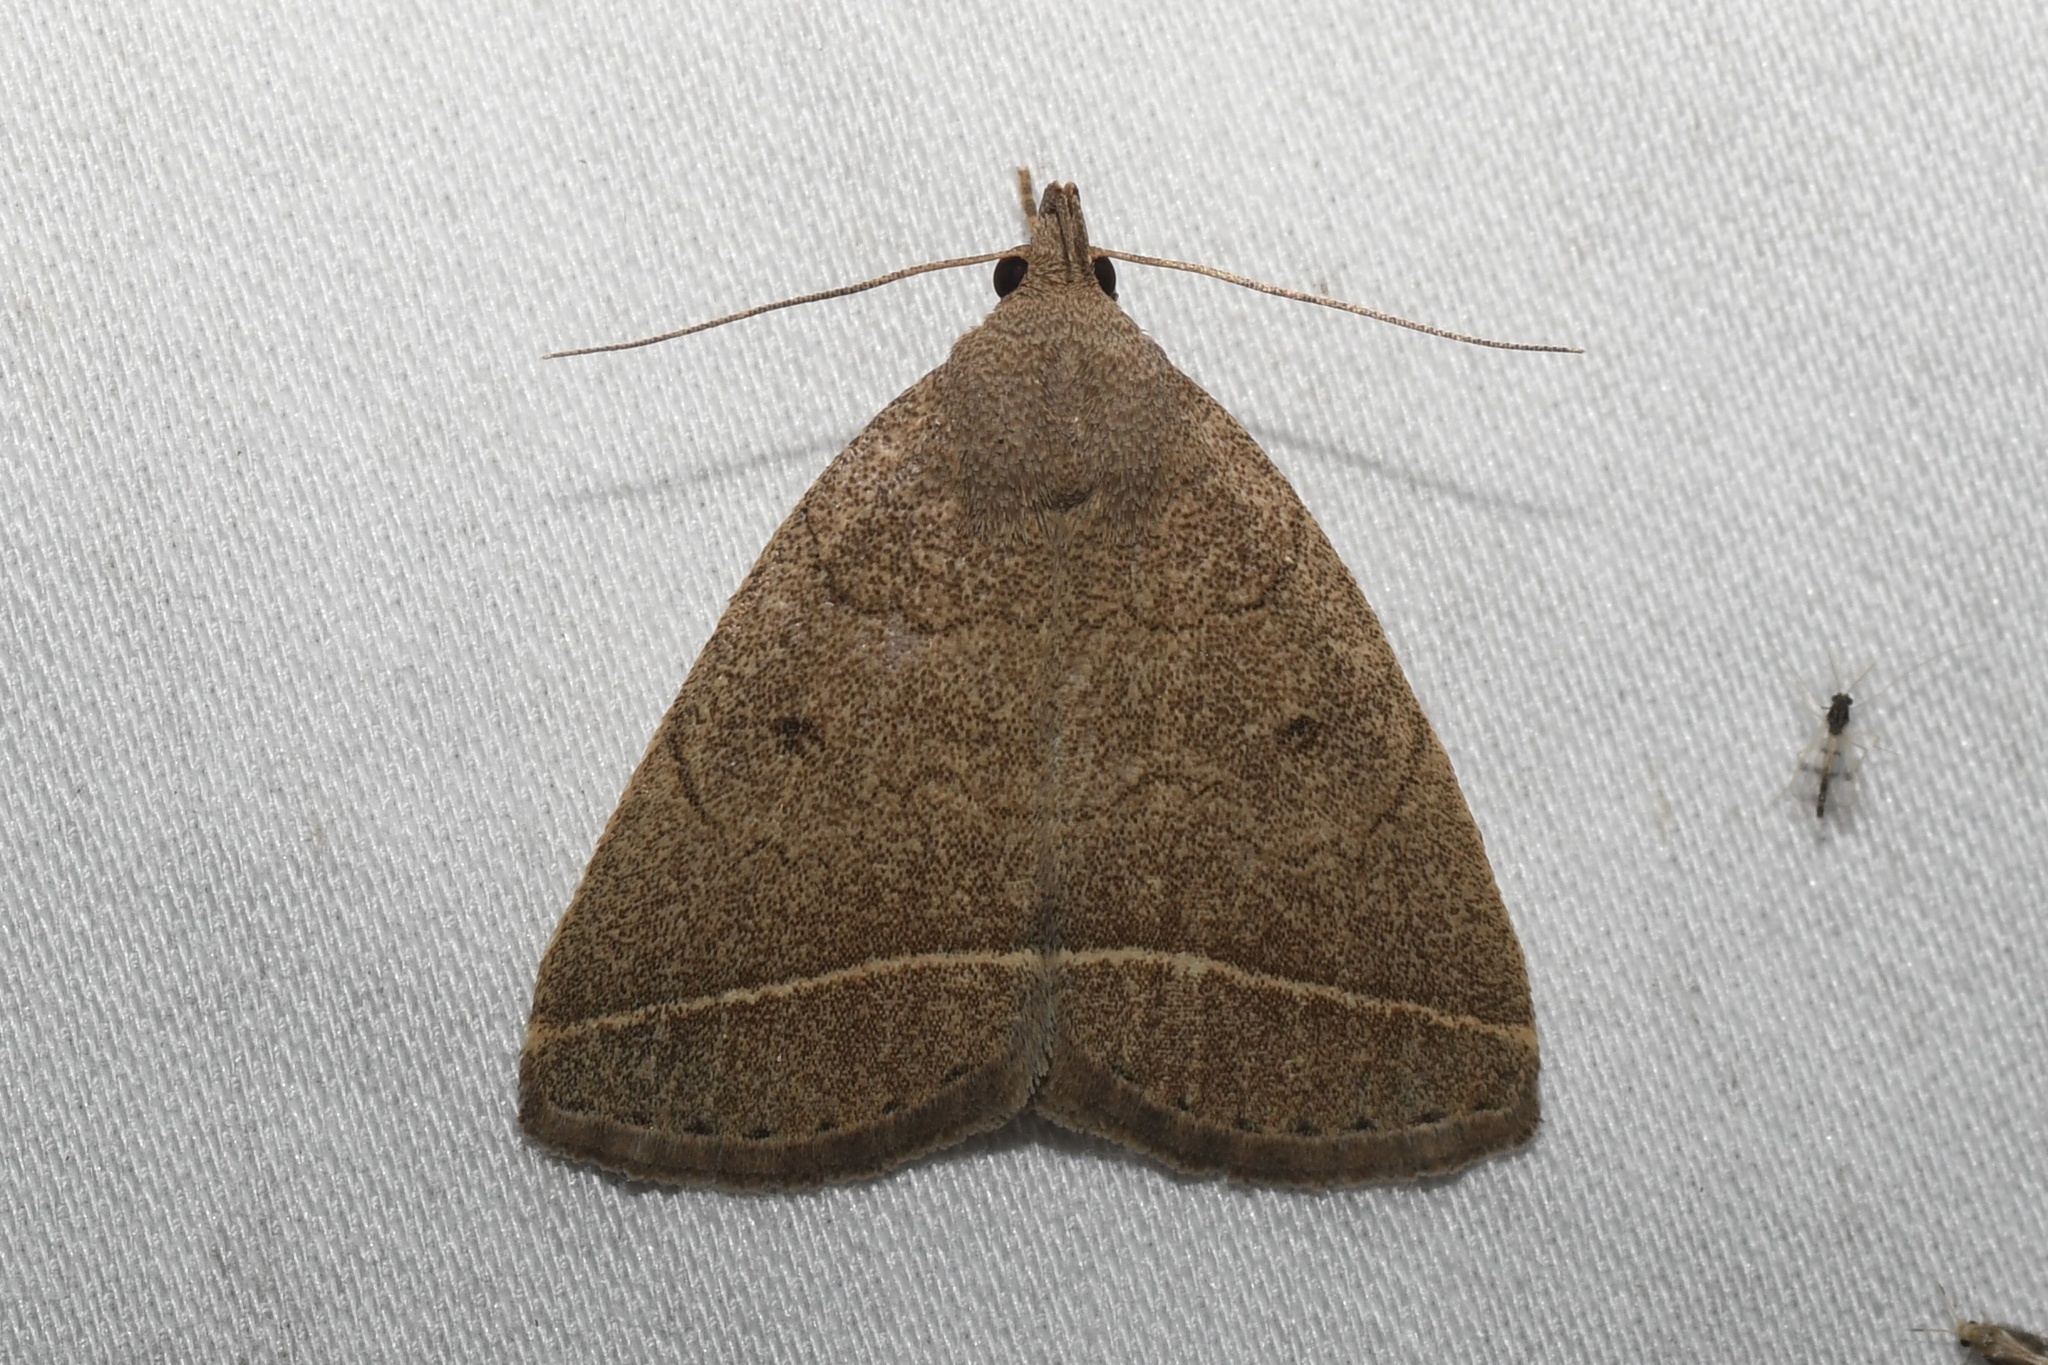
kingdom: Animalia
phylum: Arthropoda
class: Insecta
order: Lepidoptera
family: Erebidae
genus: Zanclognatha
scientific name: Zanclognatha marcidilinea
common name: Yellowish fan-foot
